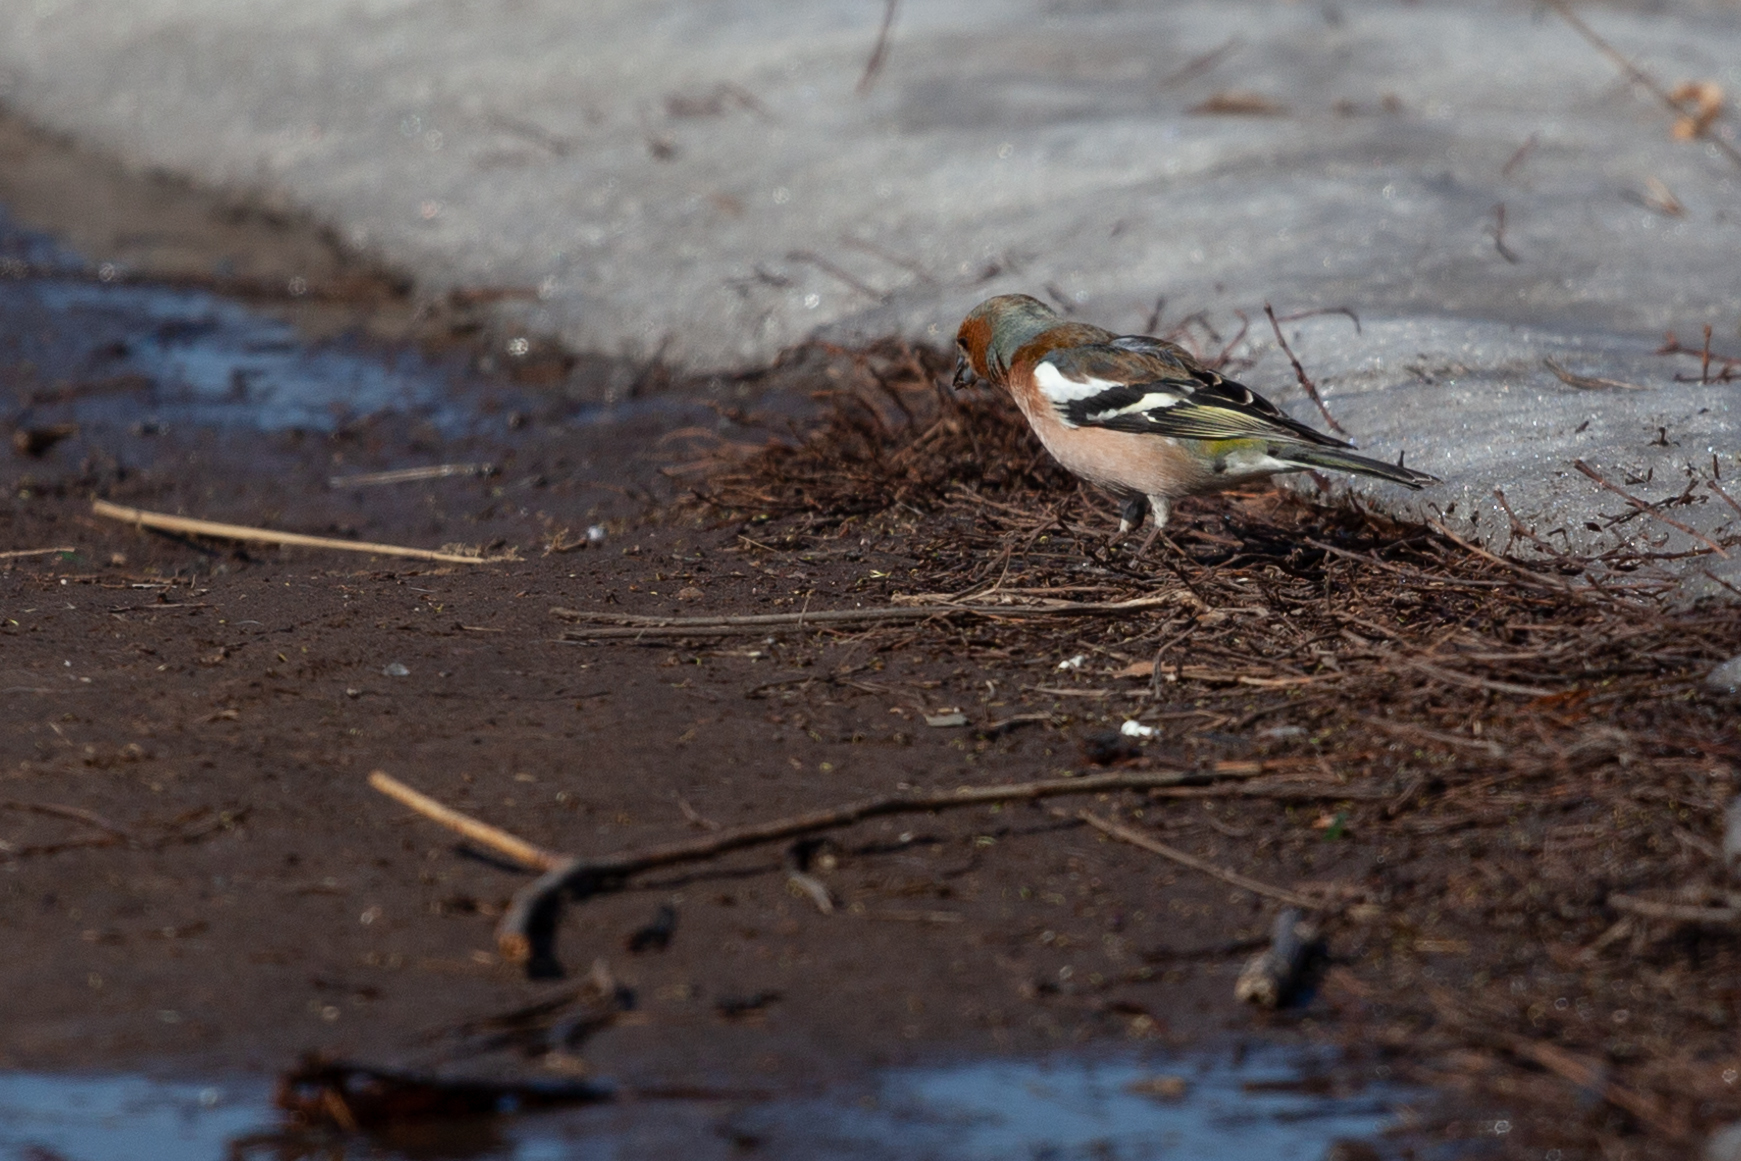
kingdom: Animalia
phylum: Chordata
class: Aves
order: Passeriformes
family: Fringillidae
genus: Fringilla
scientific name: Fringilla coelebs
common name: Common chaffinch
